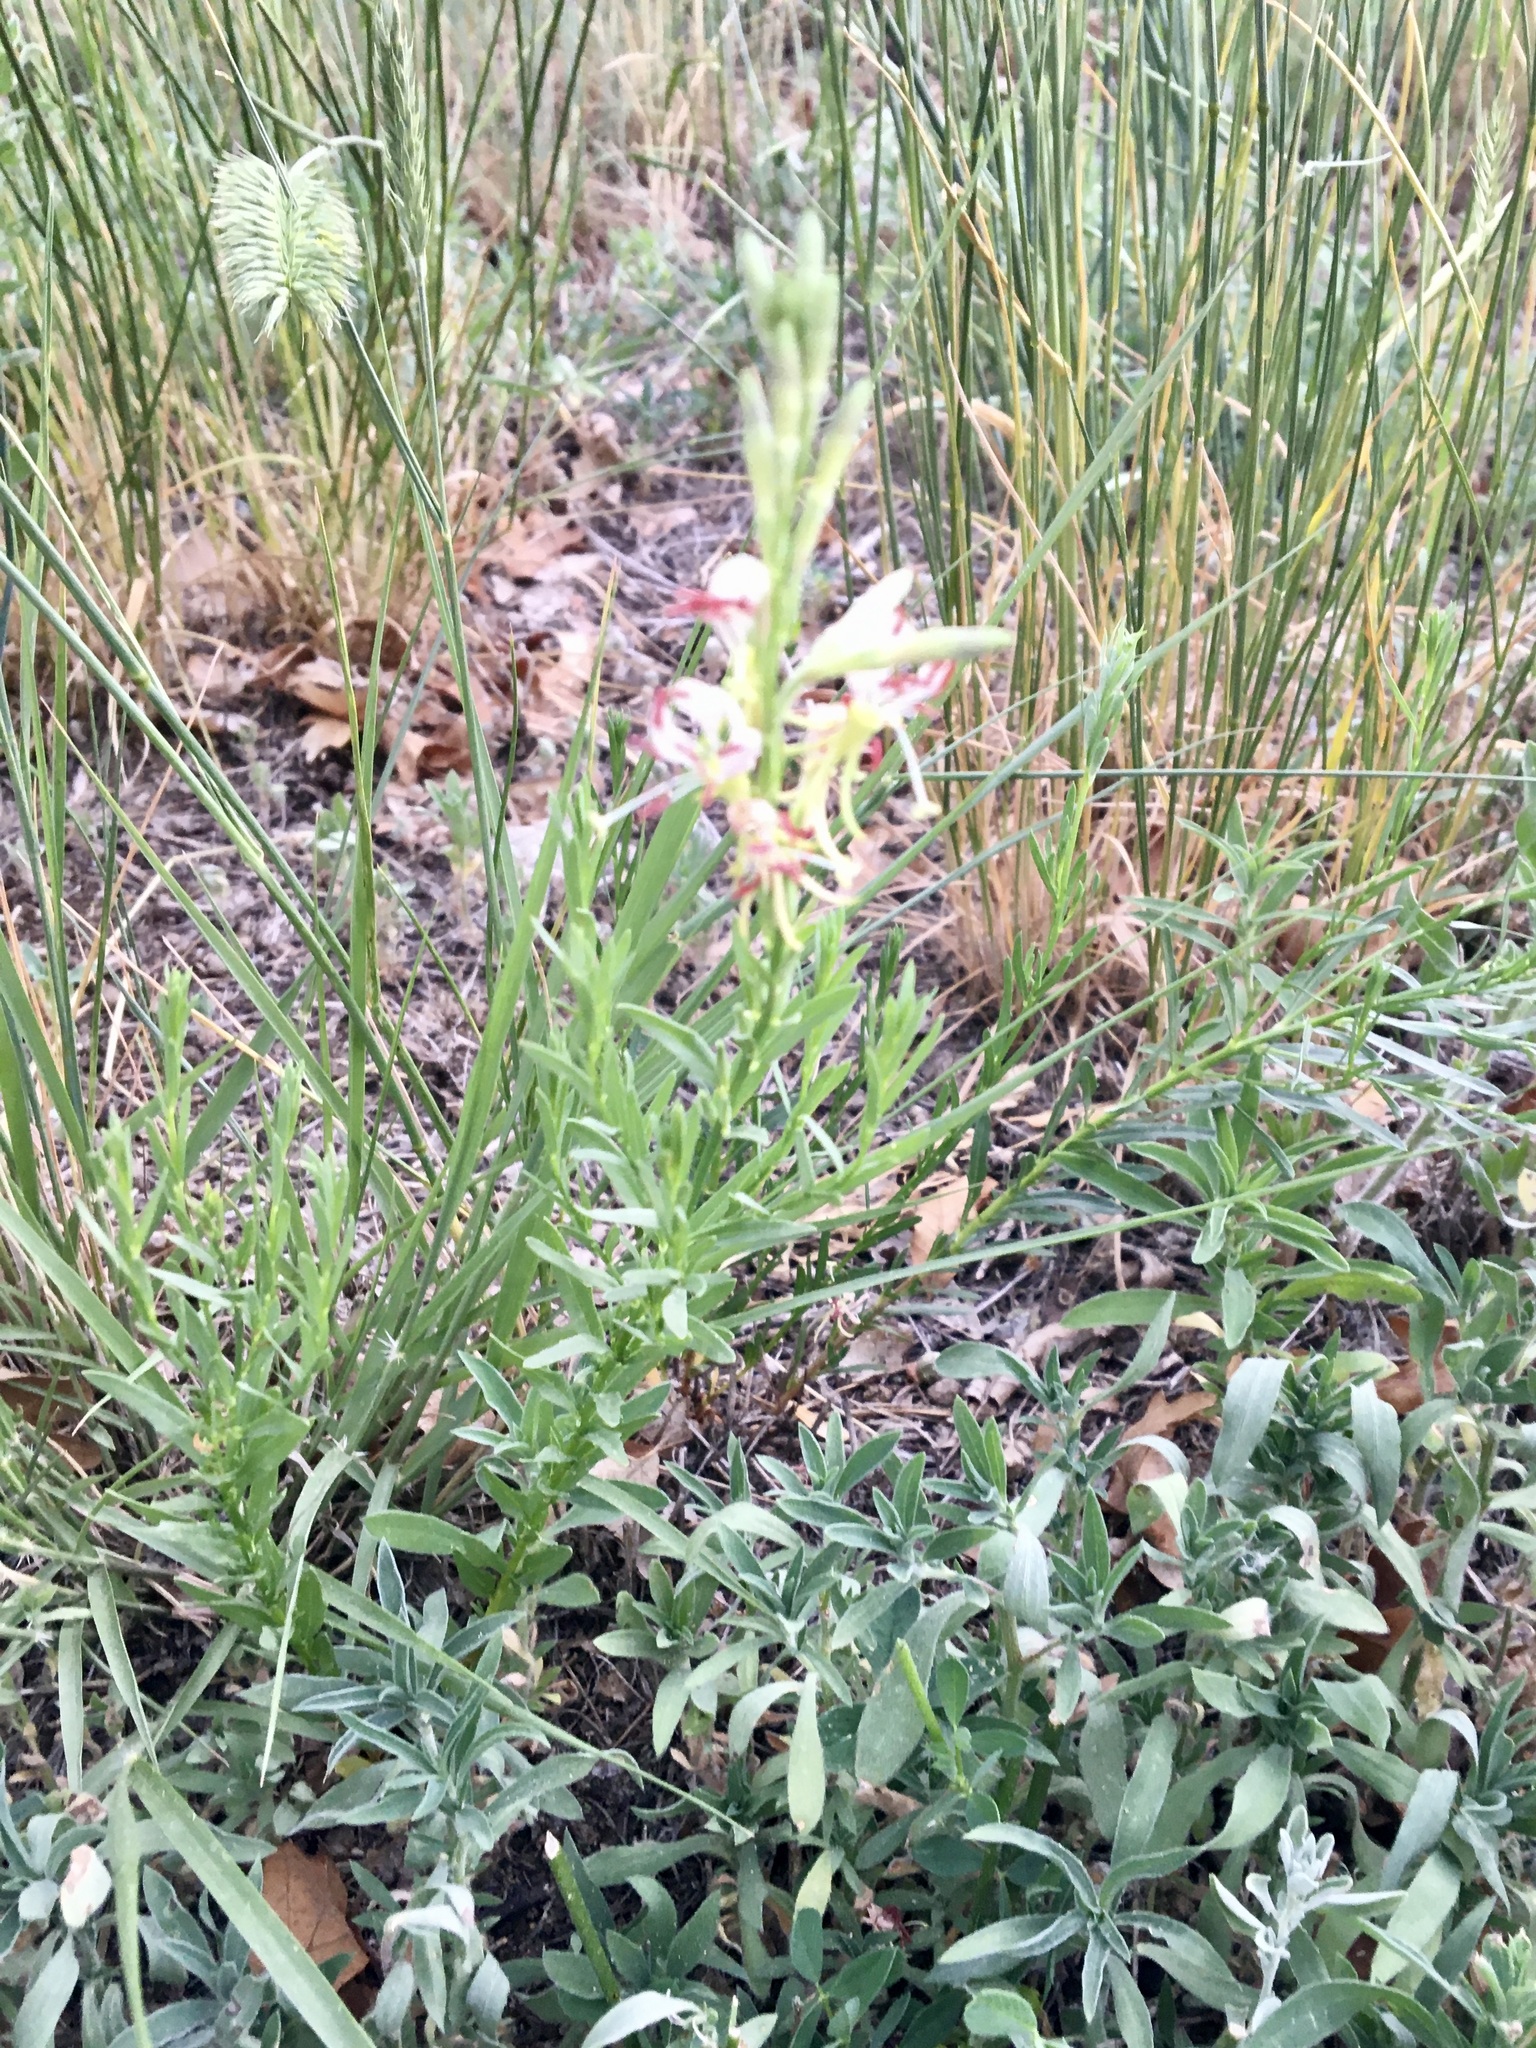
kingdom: Plantae
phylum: Tracheophyta
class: Magnoliopsida
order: Myrtales
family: Onagraceae
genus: Oenothera
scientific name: Oenothera suffrutescens
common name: Scarlet beeblossom
